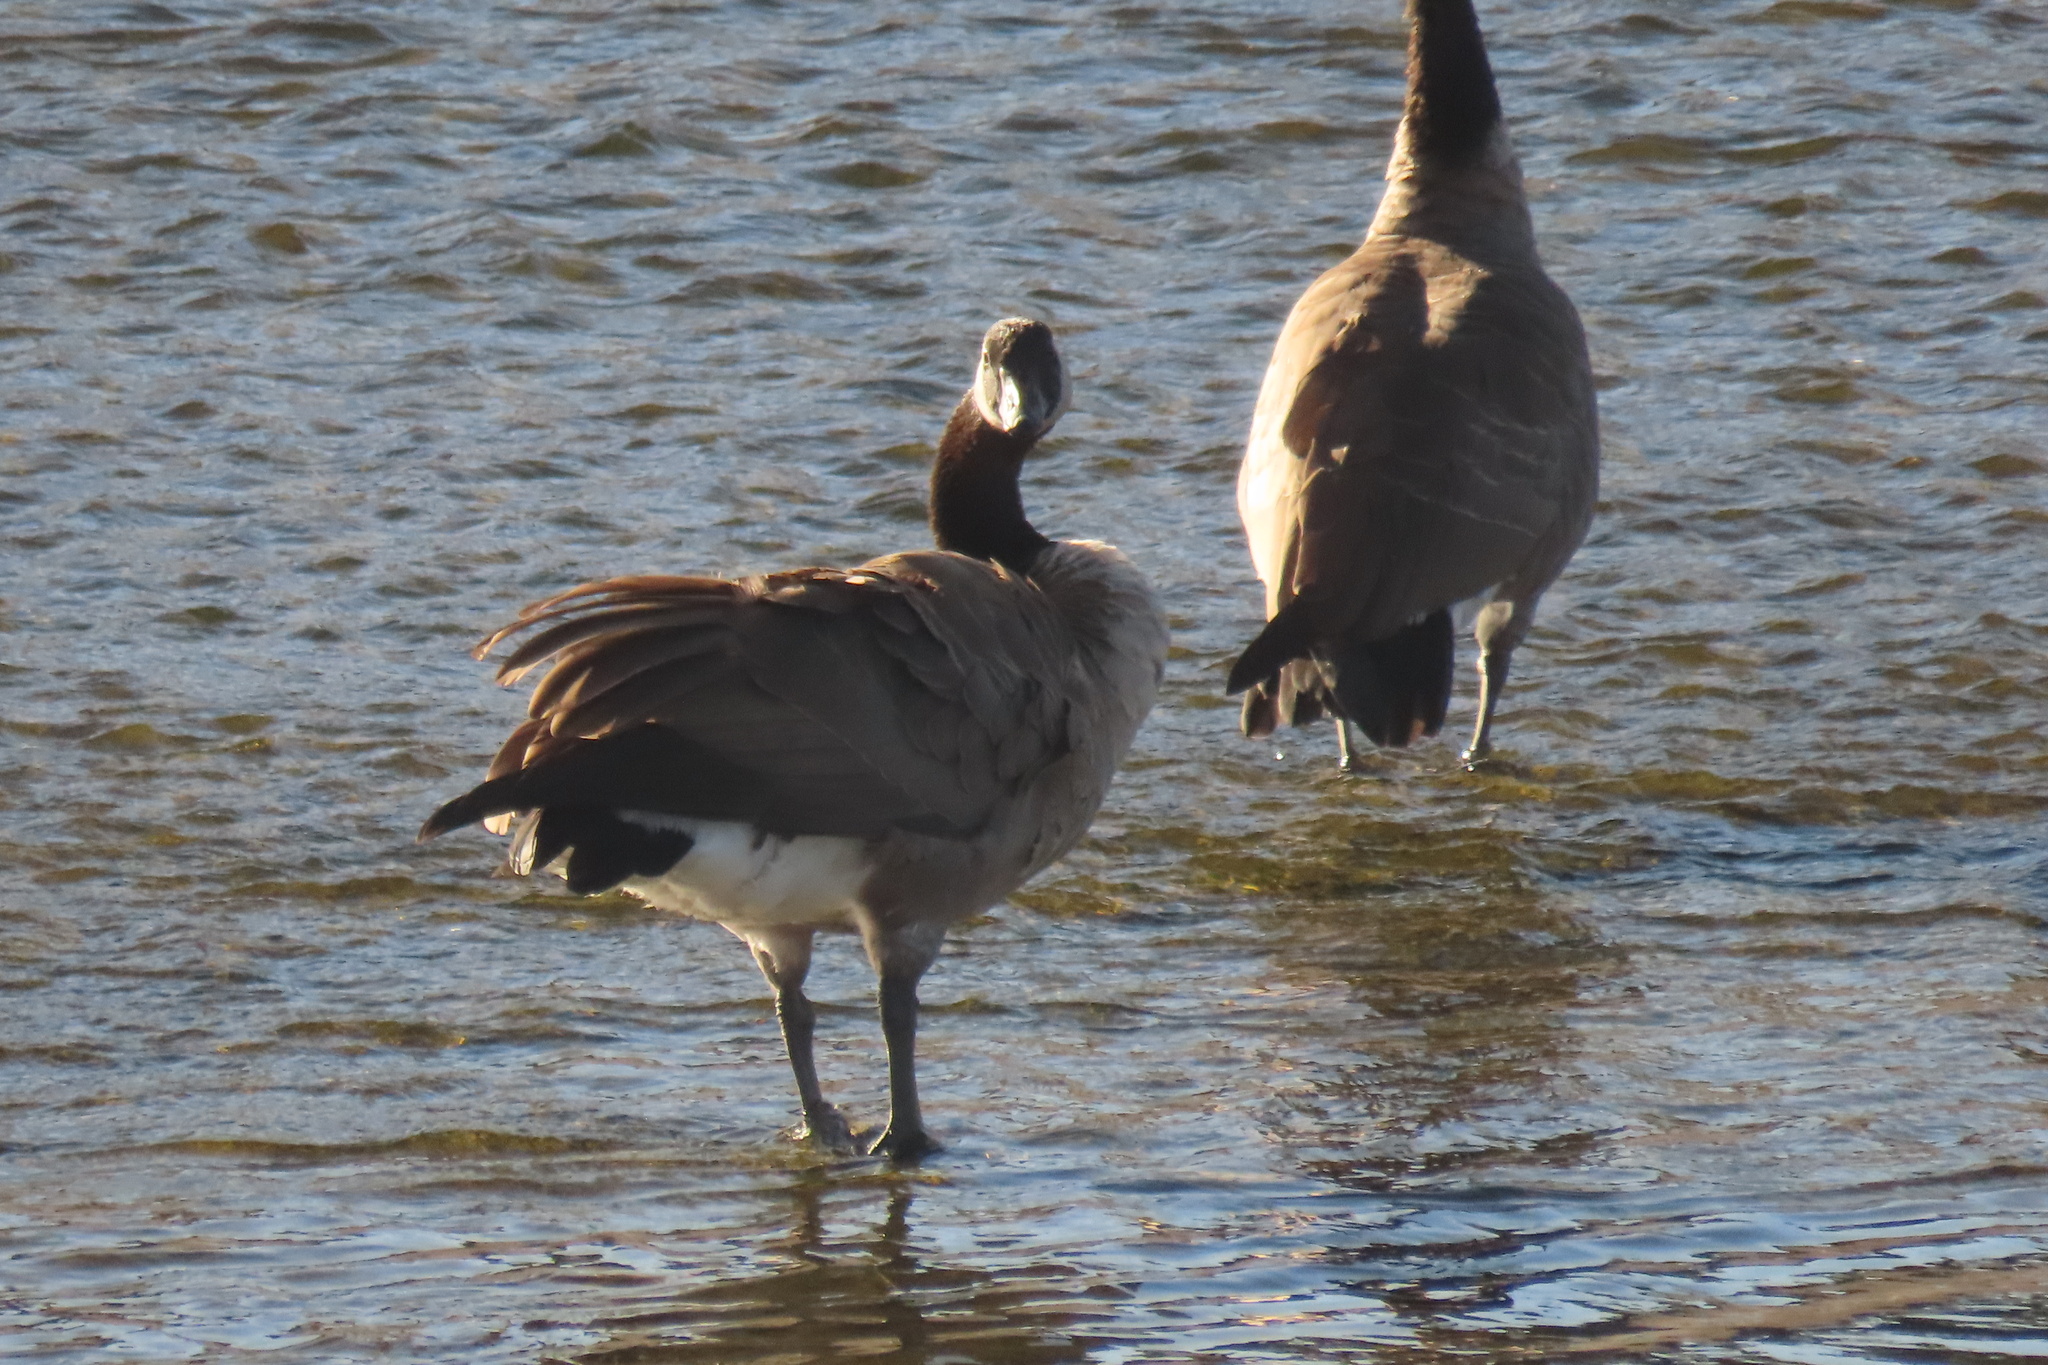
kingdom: Animalia
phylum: Chordata
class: Aves
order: Anseriformes
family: Anatidae
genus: Branta
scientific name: Branta canadensis
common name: Canada goose
